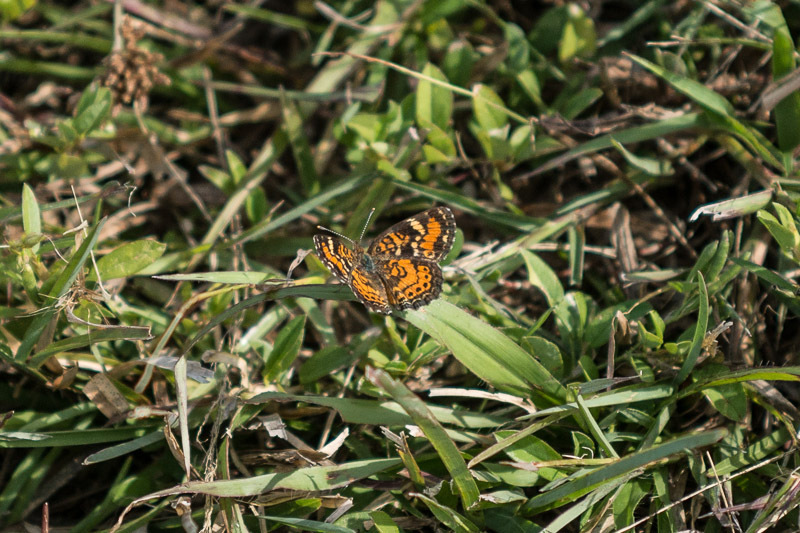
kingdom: Animalia
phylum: Arthropoda
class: Insecta
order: Lepidoptera
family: Nymphalidae
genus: Phyciodes
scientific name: Phyciodes phaon
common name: Phaon crescent
